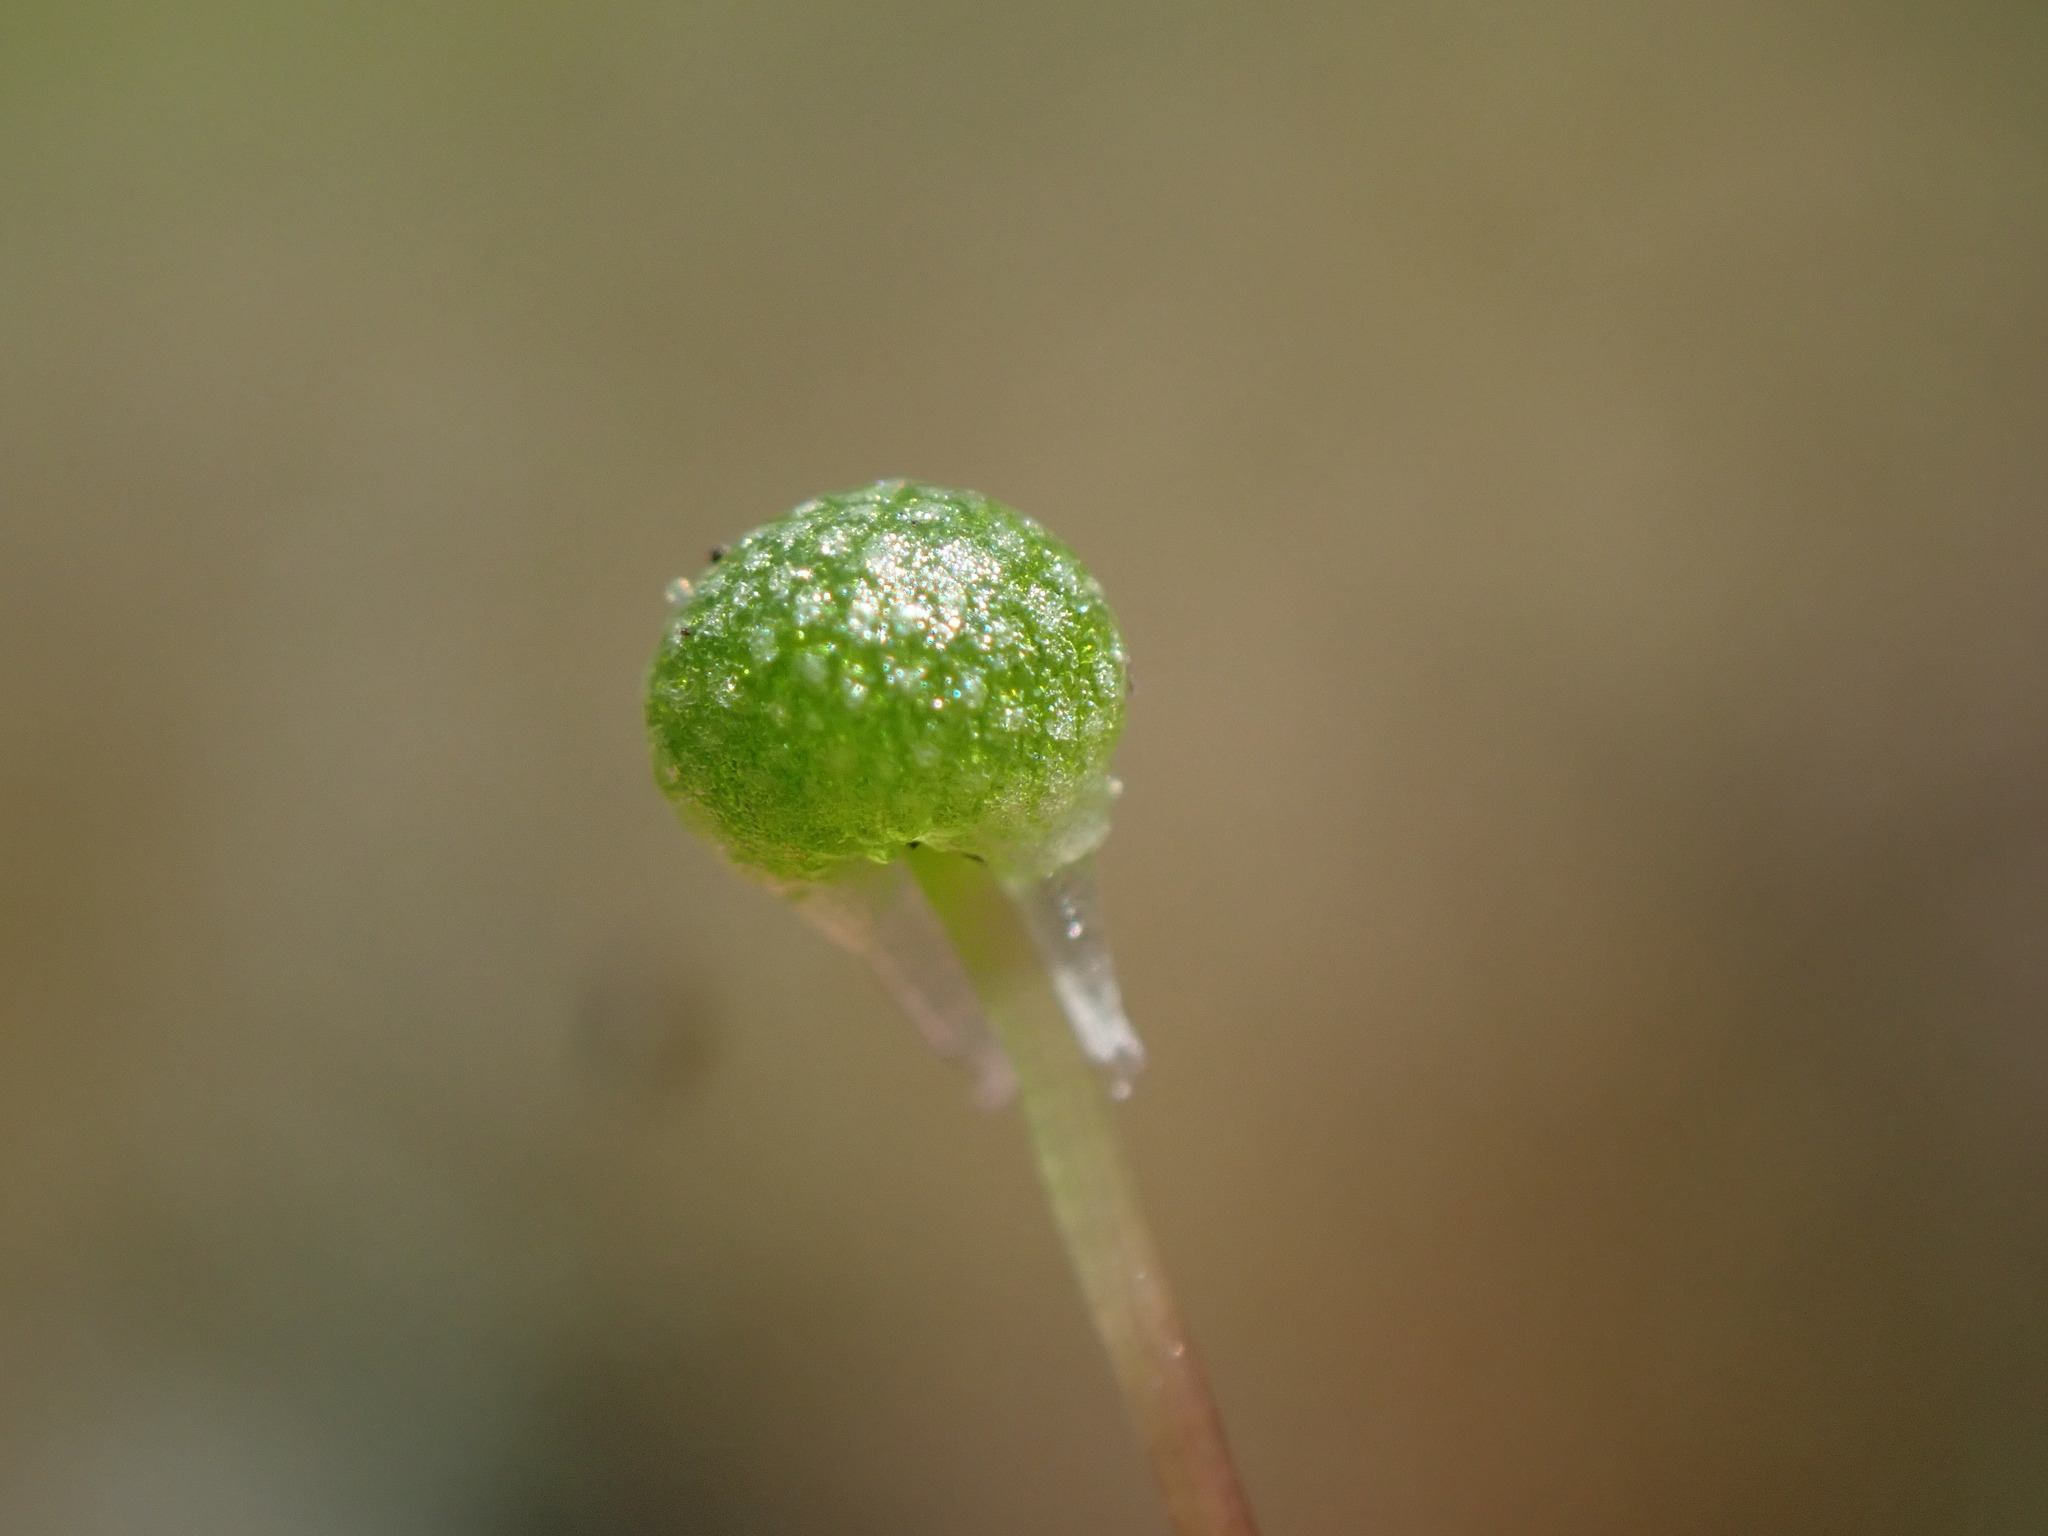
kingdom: Plantae
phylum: Marchantiophyta
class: Marchantiopsida
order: Marchantiales
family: Aytoniaceae
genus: Mannia
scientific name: Mannia gracilis
